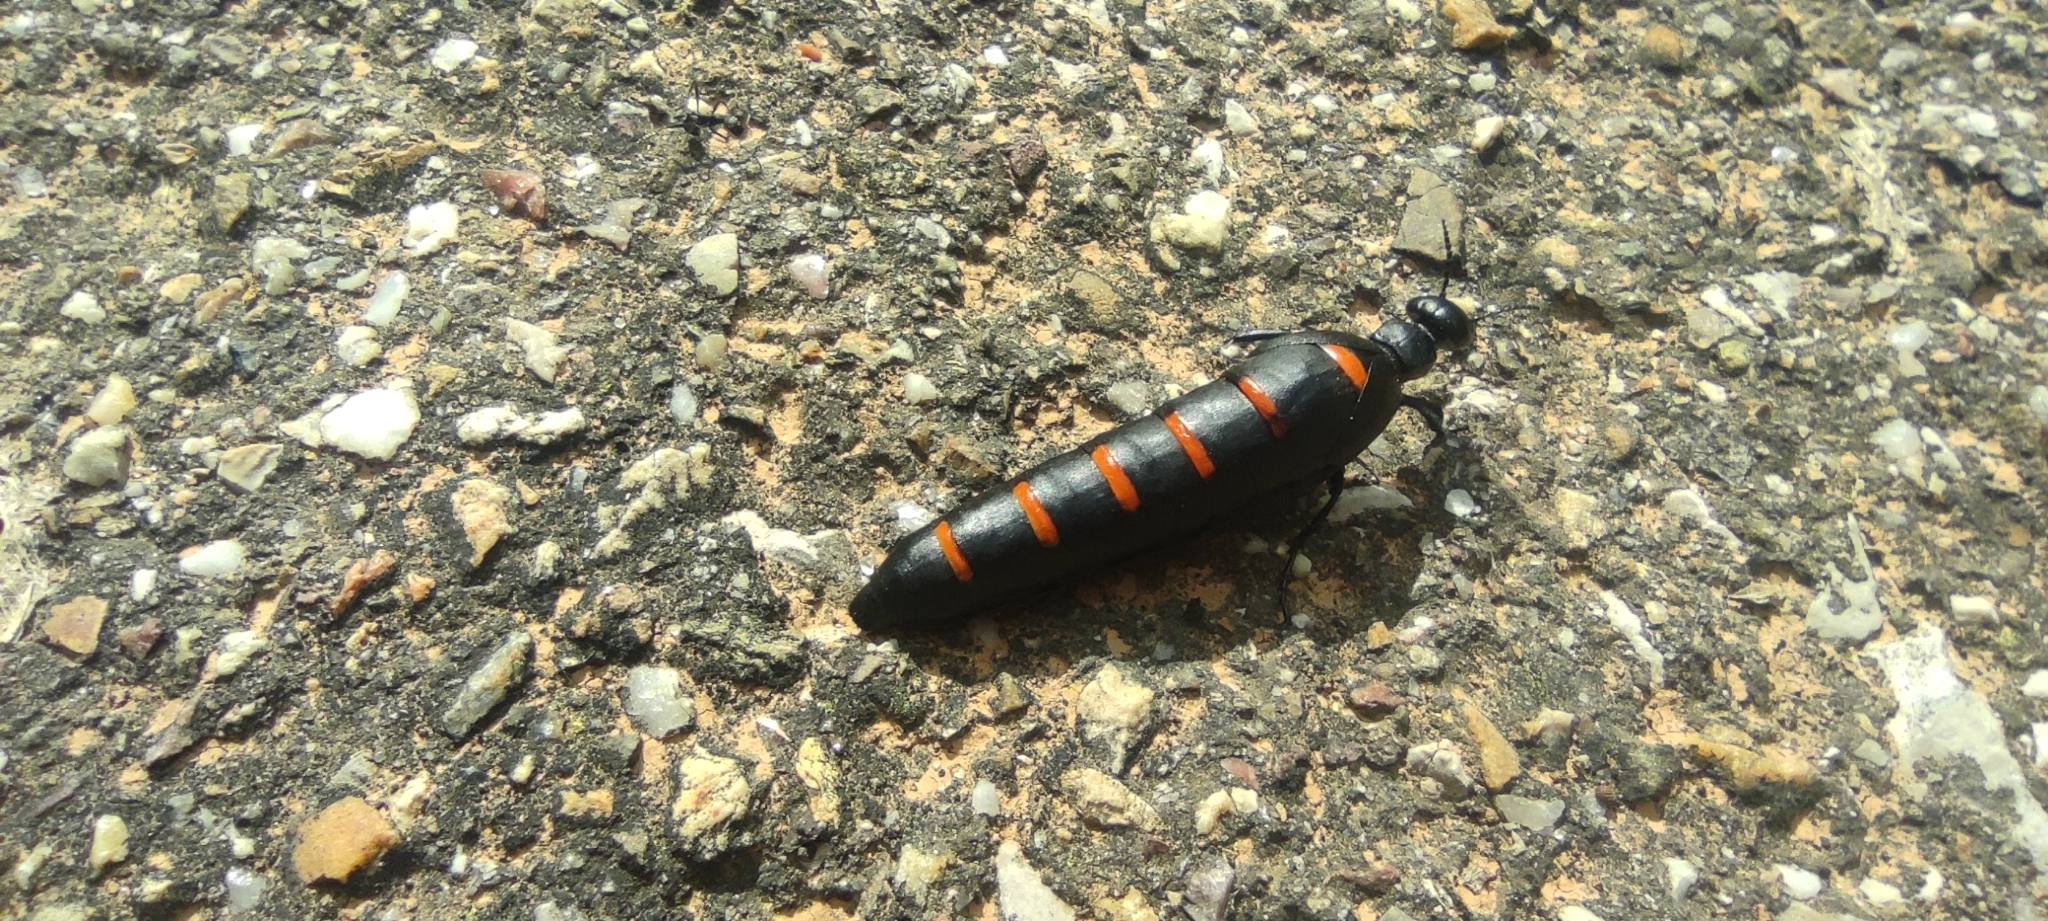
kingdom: Animalia
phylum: Arthropoda
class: Insecta
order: Coleoptera
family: Meloidae
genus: Berberomeloe
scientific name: Berberomeloe payoyo
